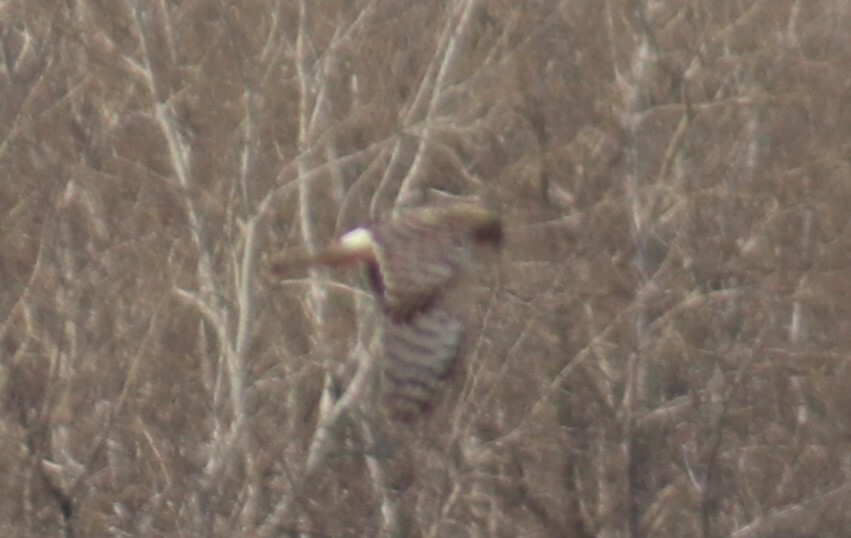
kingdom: Animalia
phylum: Chordata
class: Aves
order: Accipitriformes
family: Accipitridae
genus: Circus
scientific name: Circus cyaneus
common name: Hen harrier
